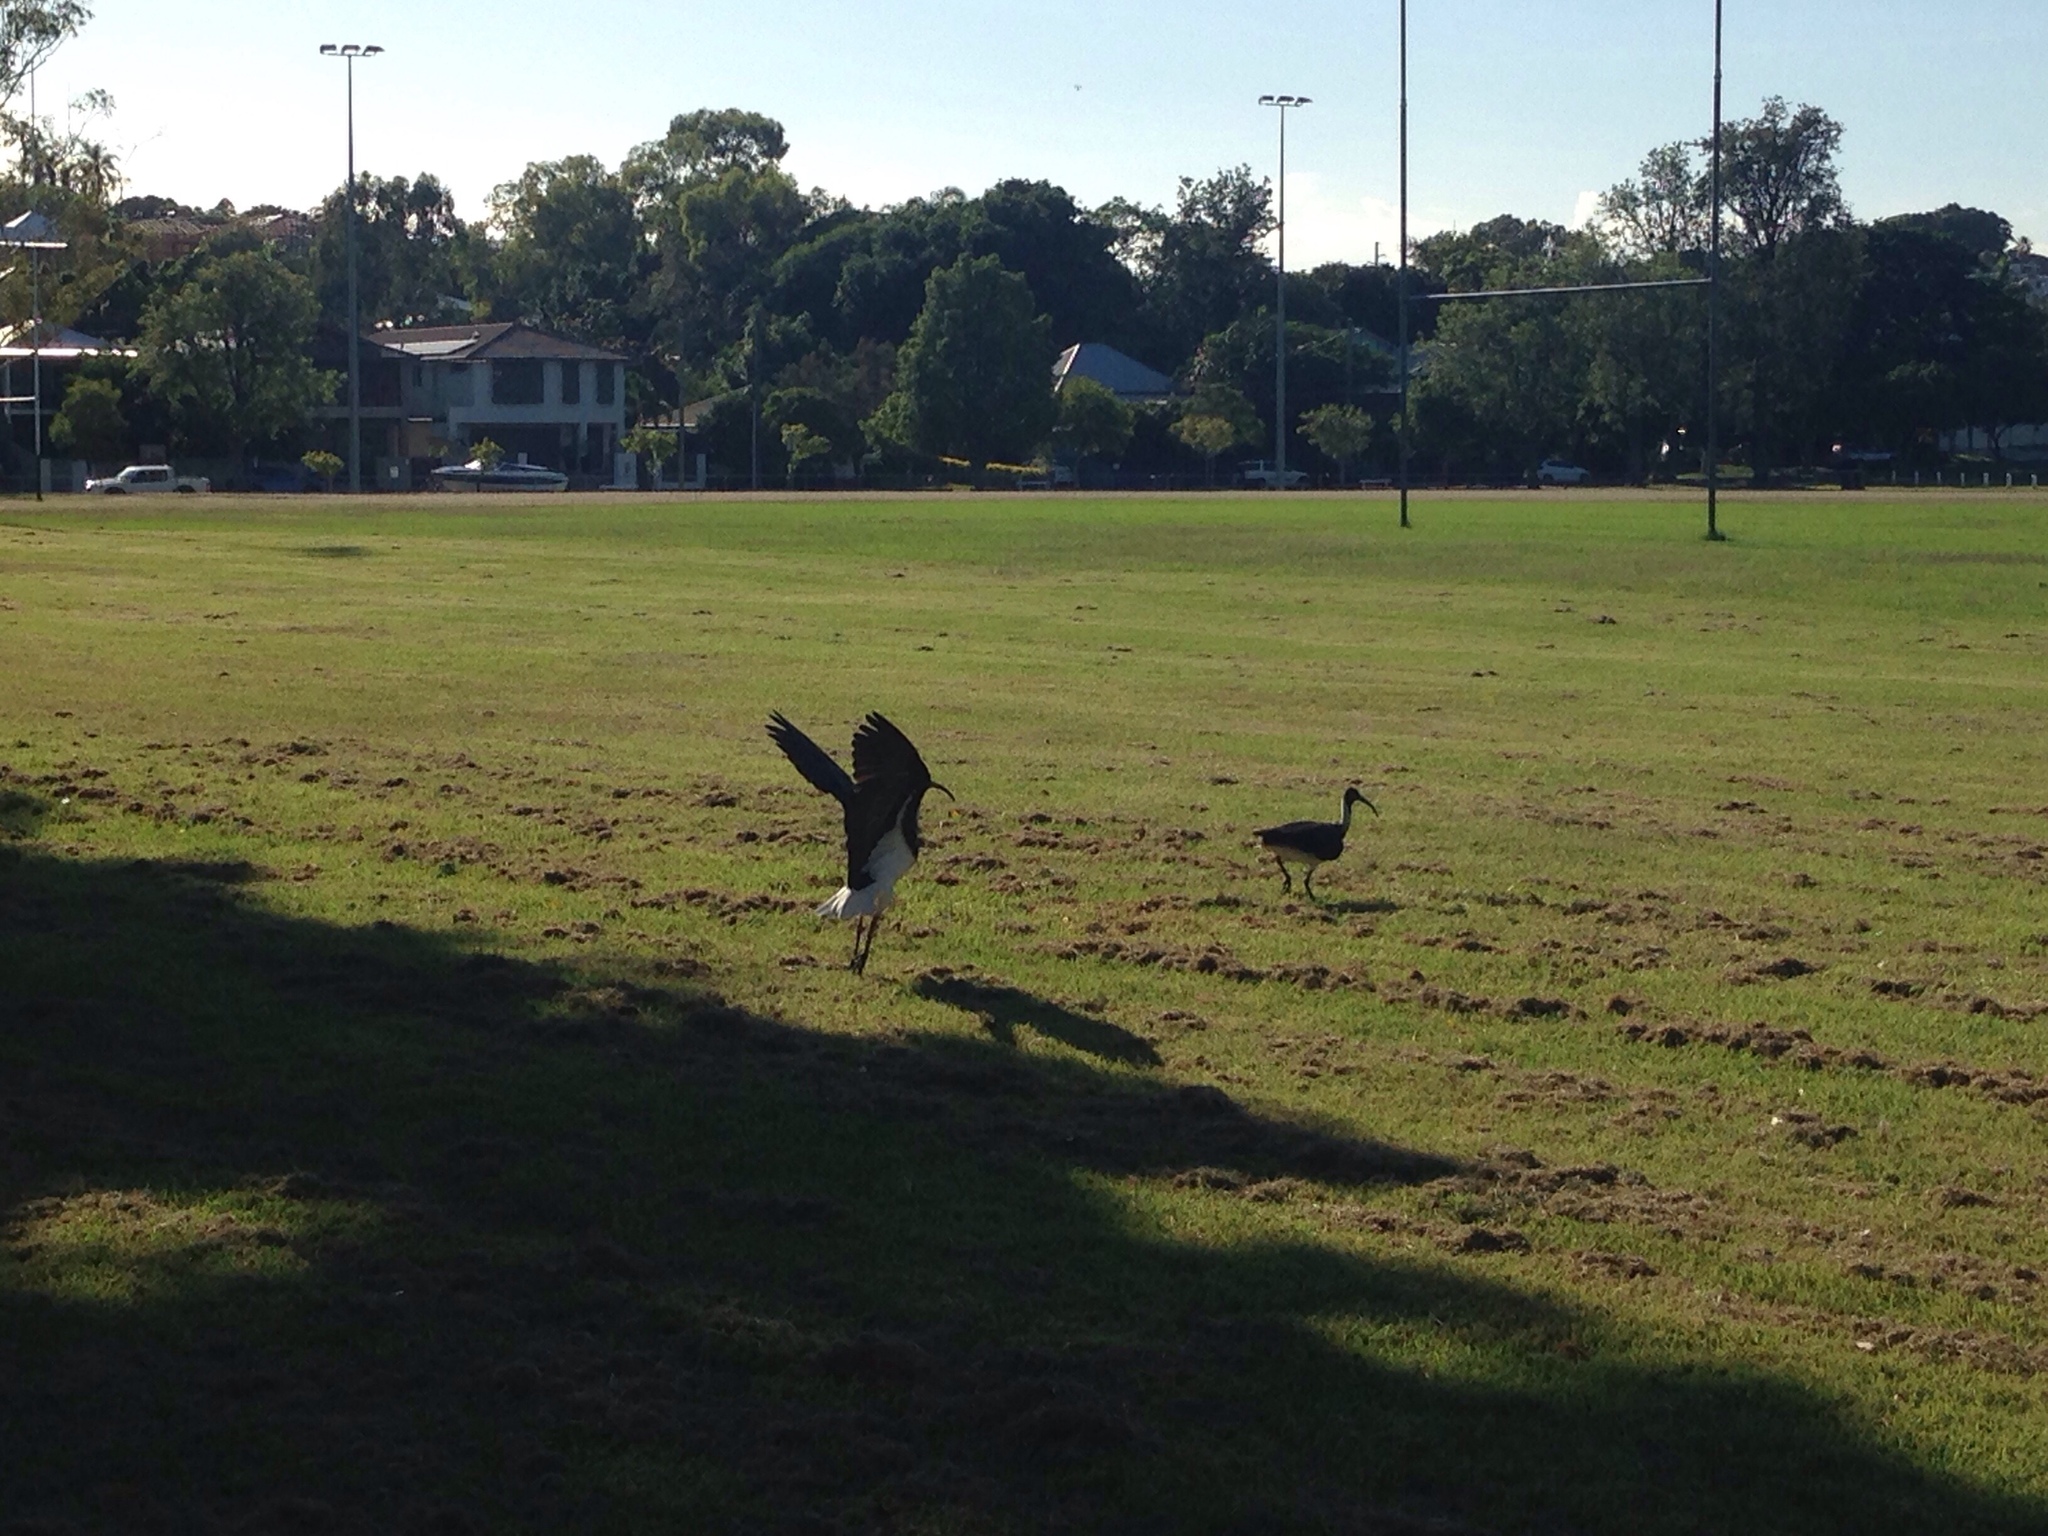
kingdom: Animalia
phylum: Chordata
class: Aves
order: Pelecaniformes
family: Threskiornithidae
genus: Threskiornis
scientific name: Threskiornis spinicollis
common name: Straw-necked ibis
